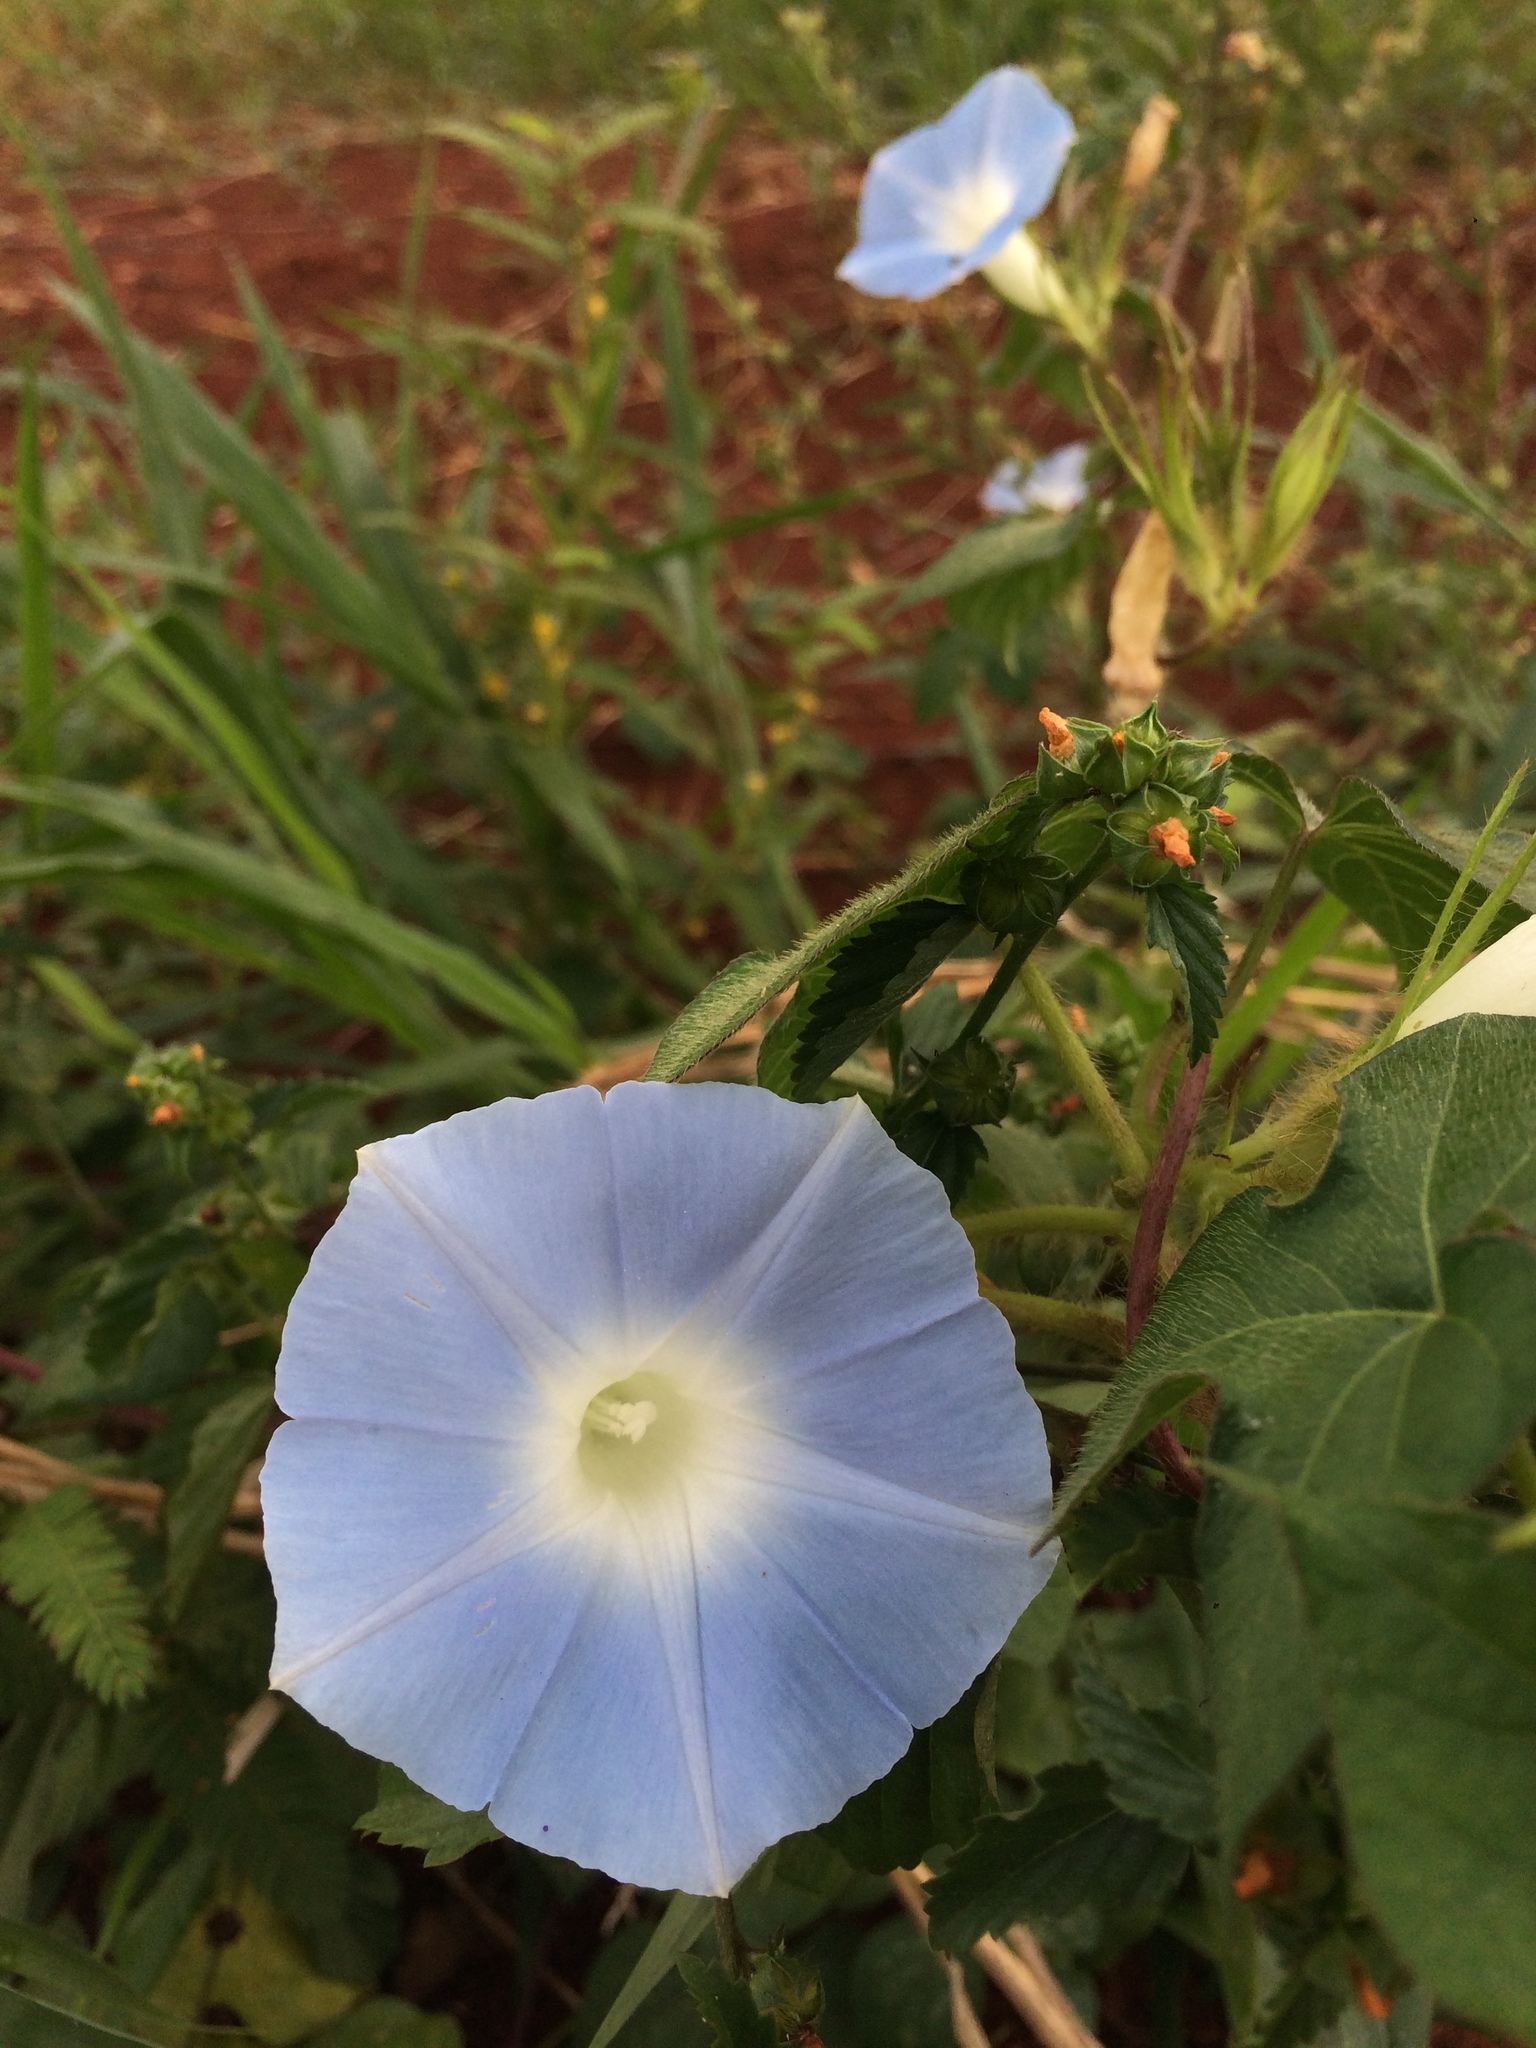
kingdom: Plantae
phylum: Tracheophyta
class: Magnoliopsida
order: Solanales
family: Convolvulaceae
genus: Ipomoea
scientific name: Ipomoea nil
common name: Japanese morning-glory
